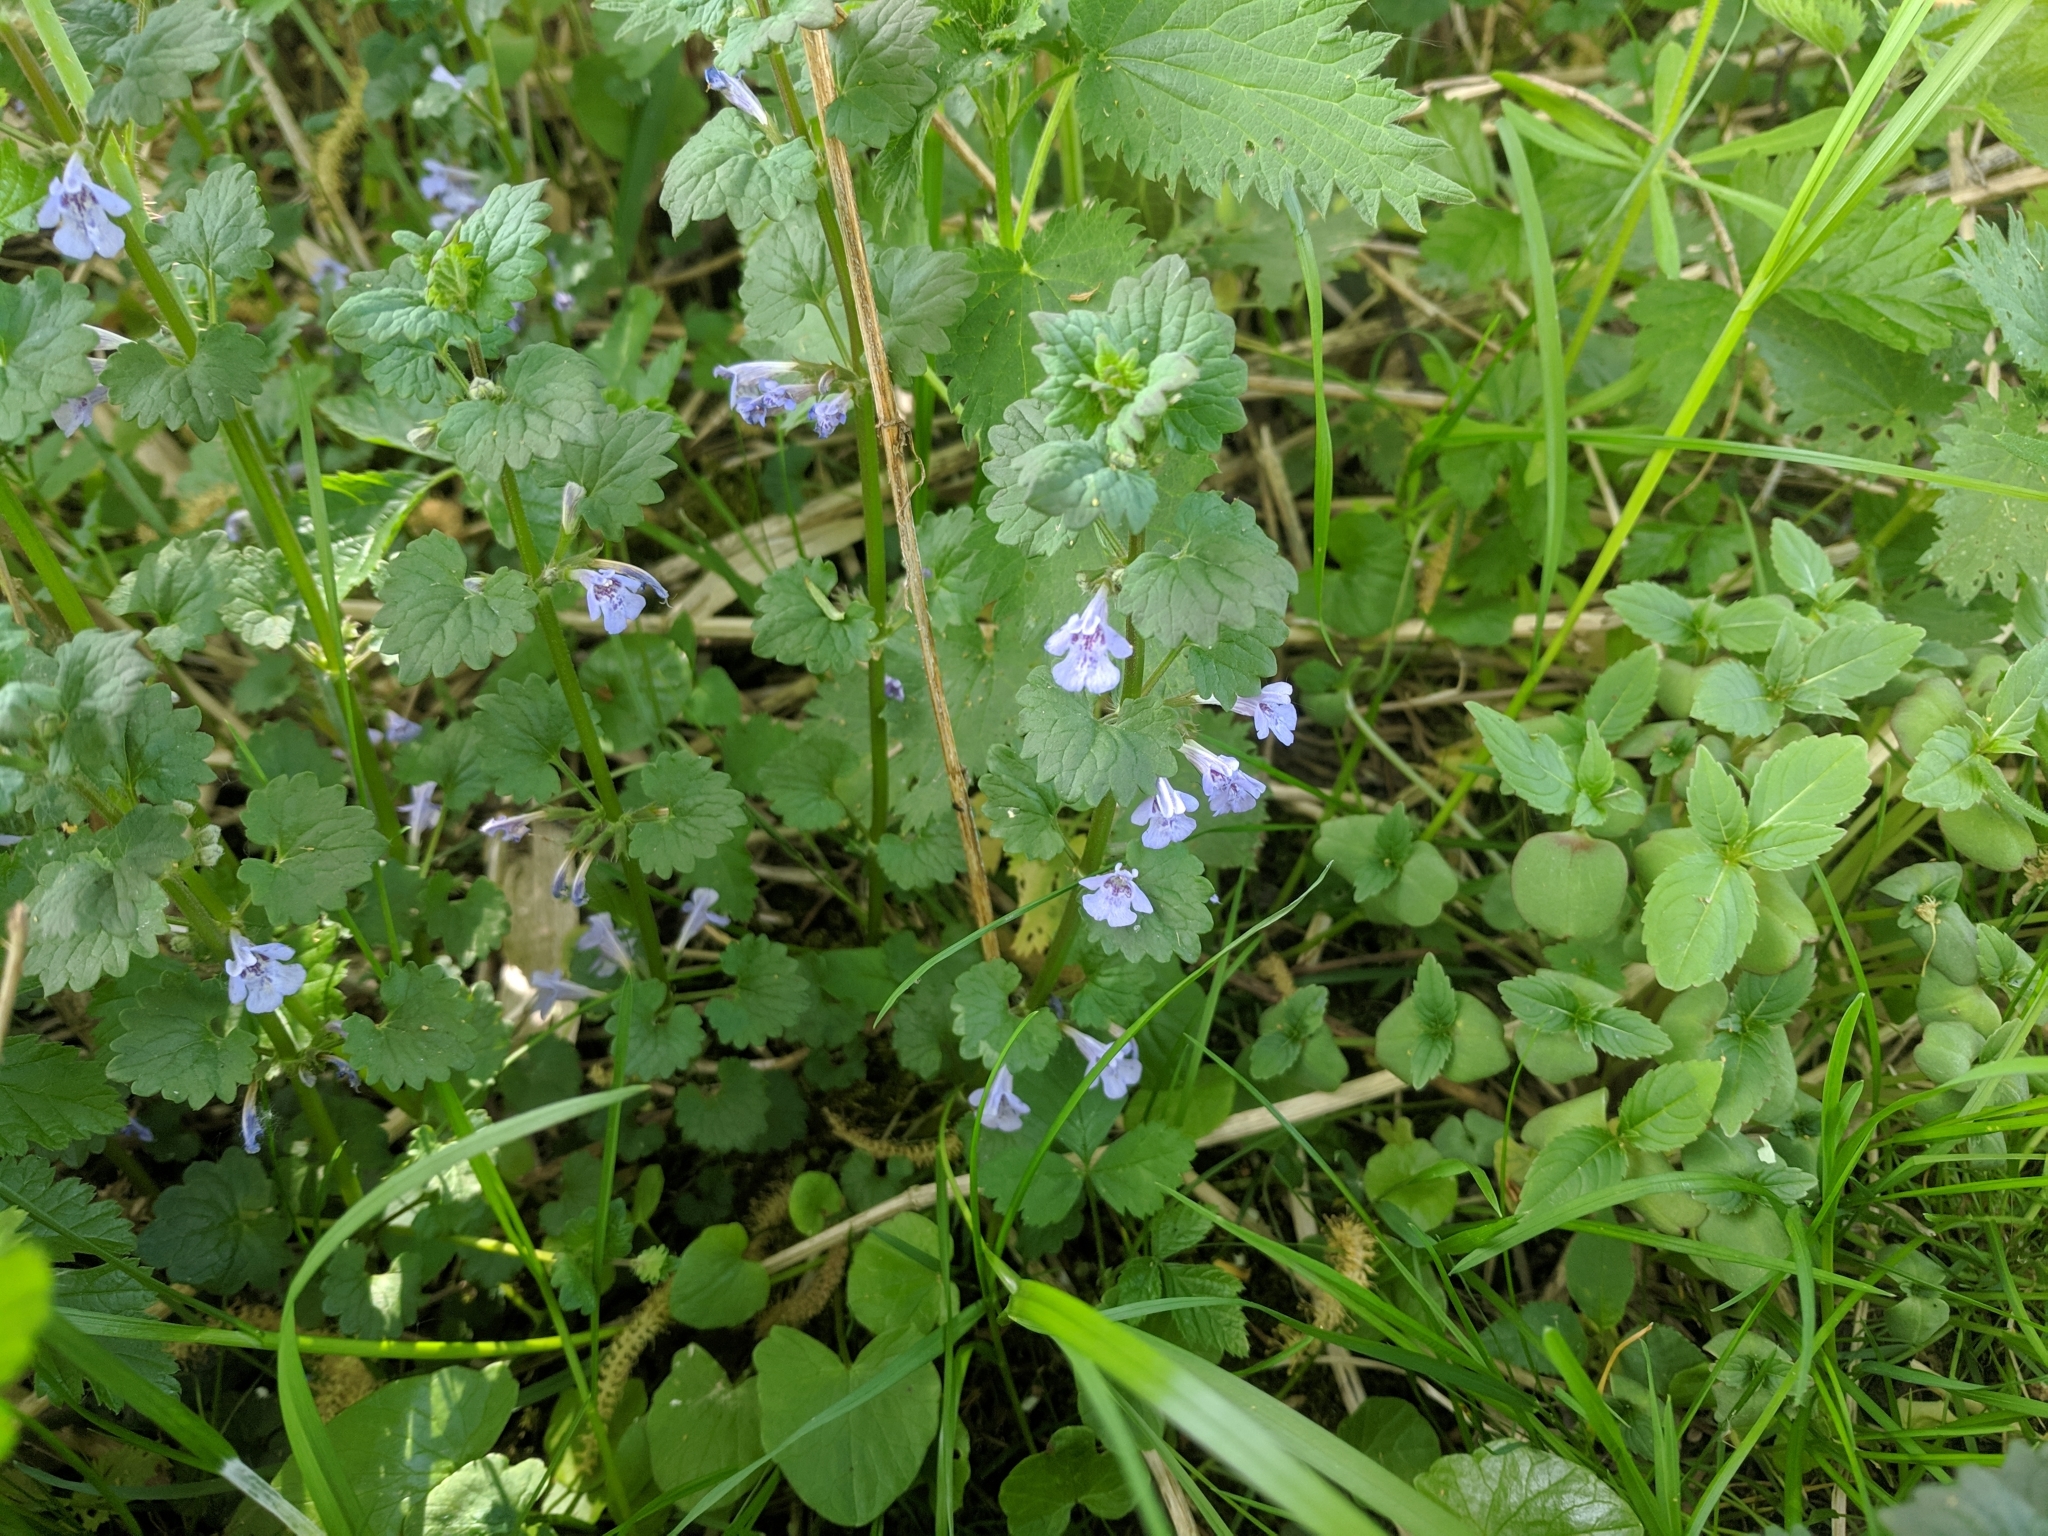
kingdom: Plantae
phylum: Tracheophyta
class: Magnoliopsida
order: Lamiales
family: Lamiaceae
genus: Glechoma
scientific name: Glechoma hederacea
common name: Ground ivy
